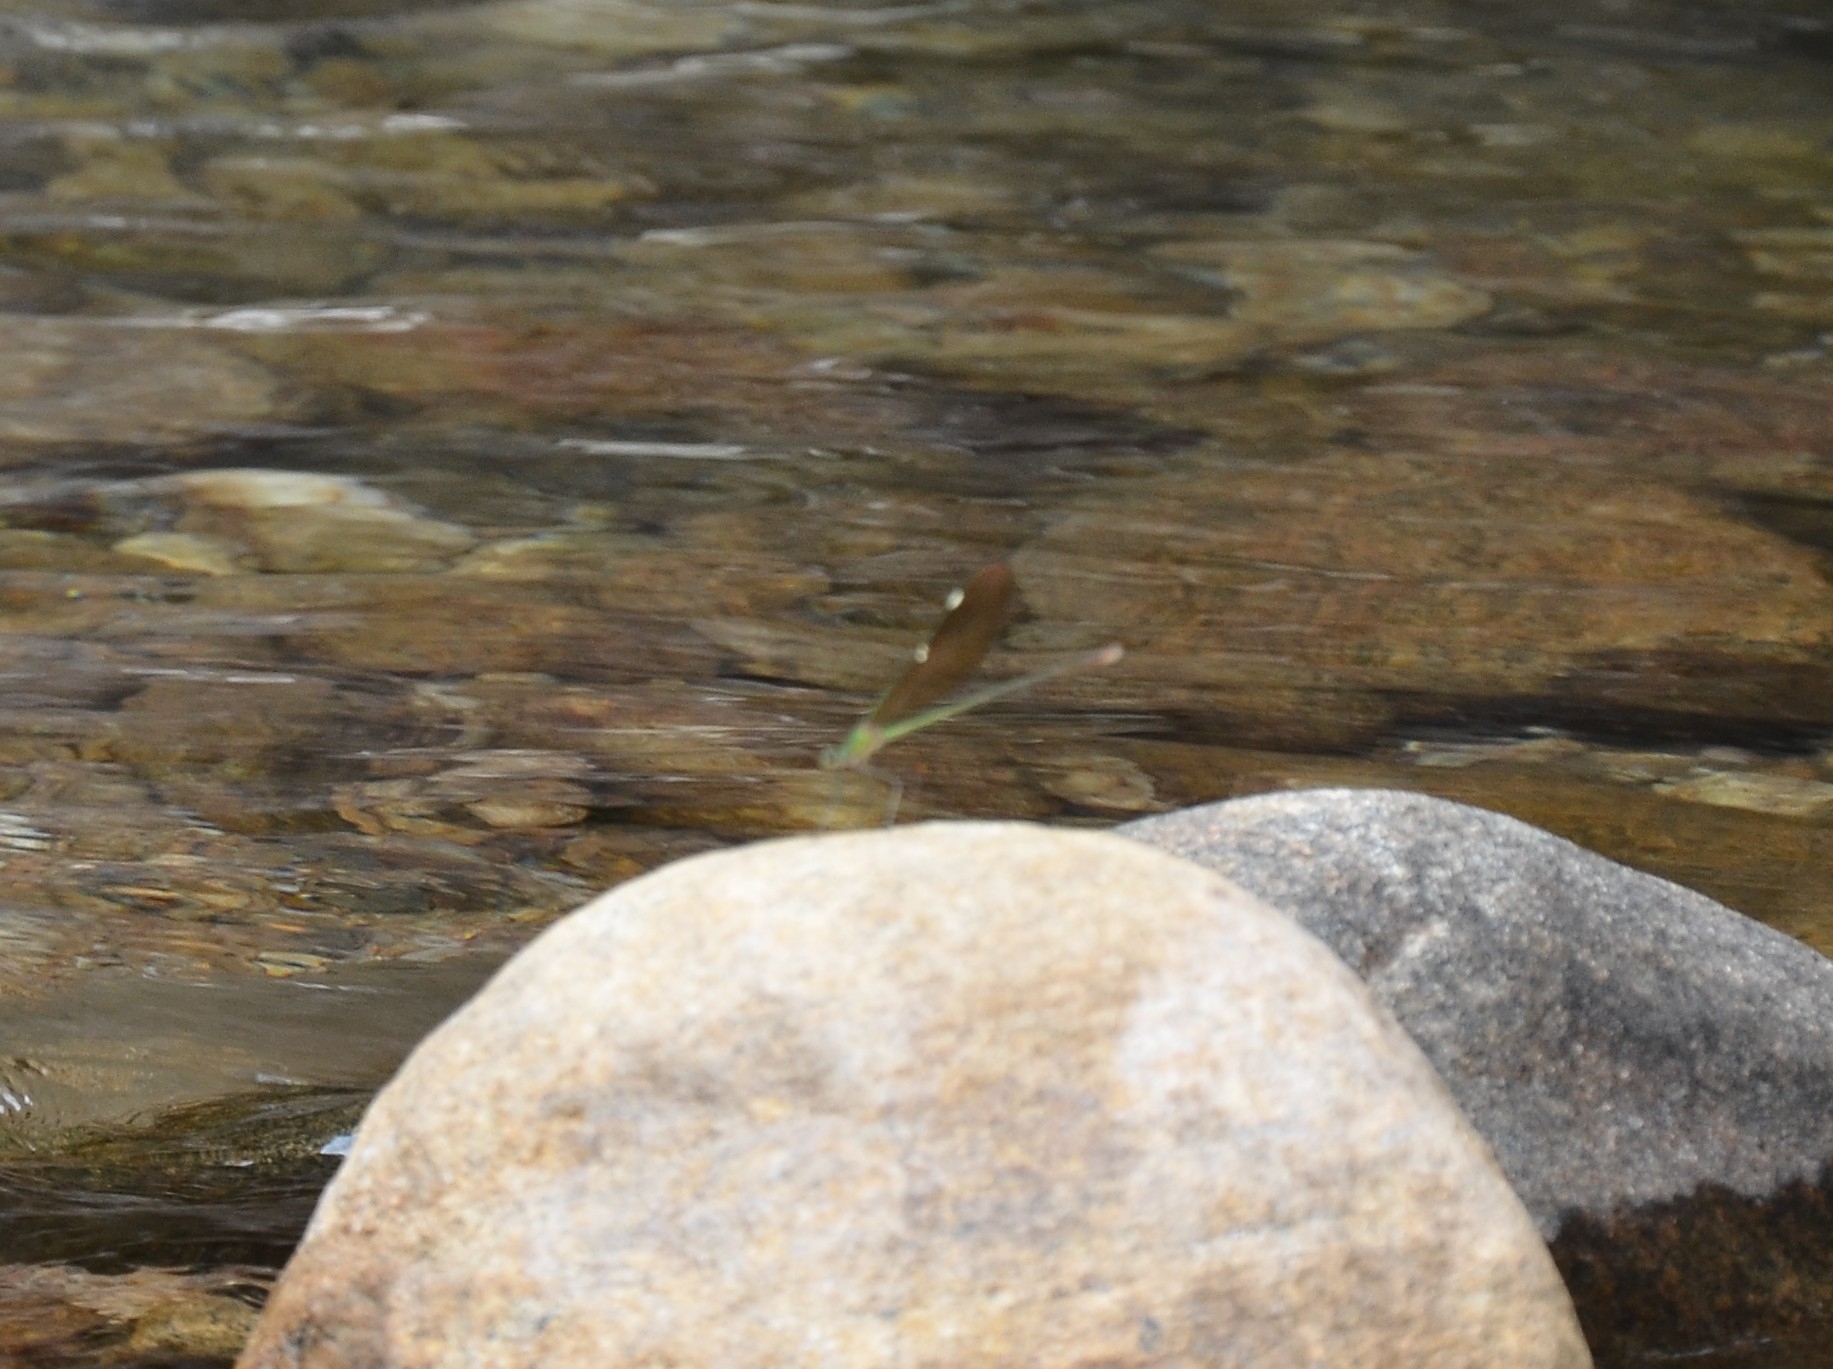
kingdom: Animalia
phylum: Arthropoda
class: Insecta
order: Odonata
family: Calopterygidae
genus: Neurobasis
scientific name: Neurobasis chinensis
